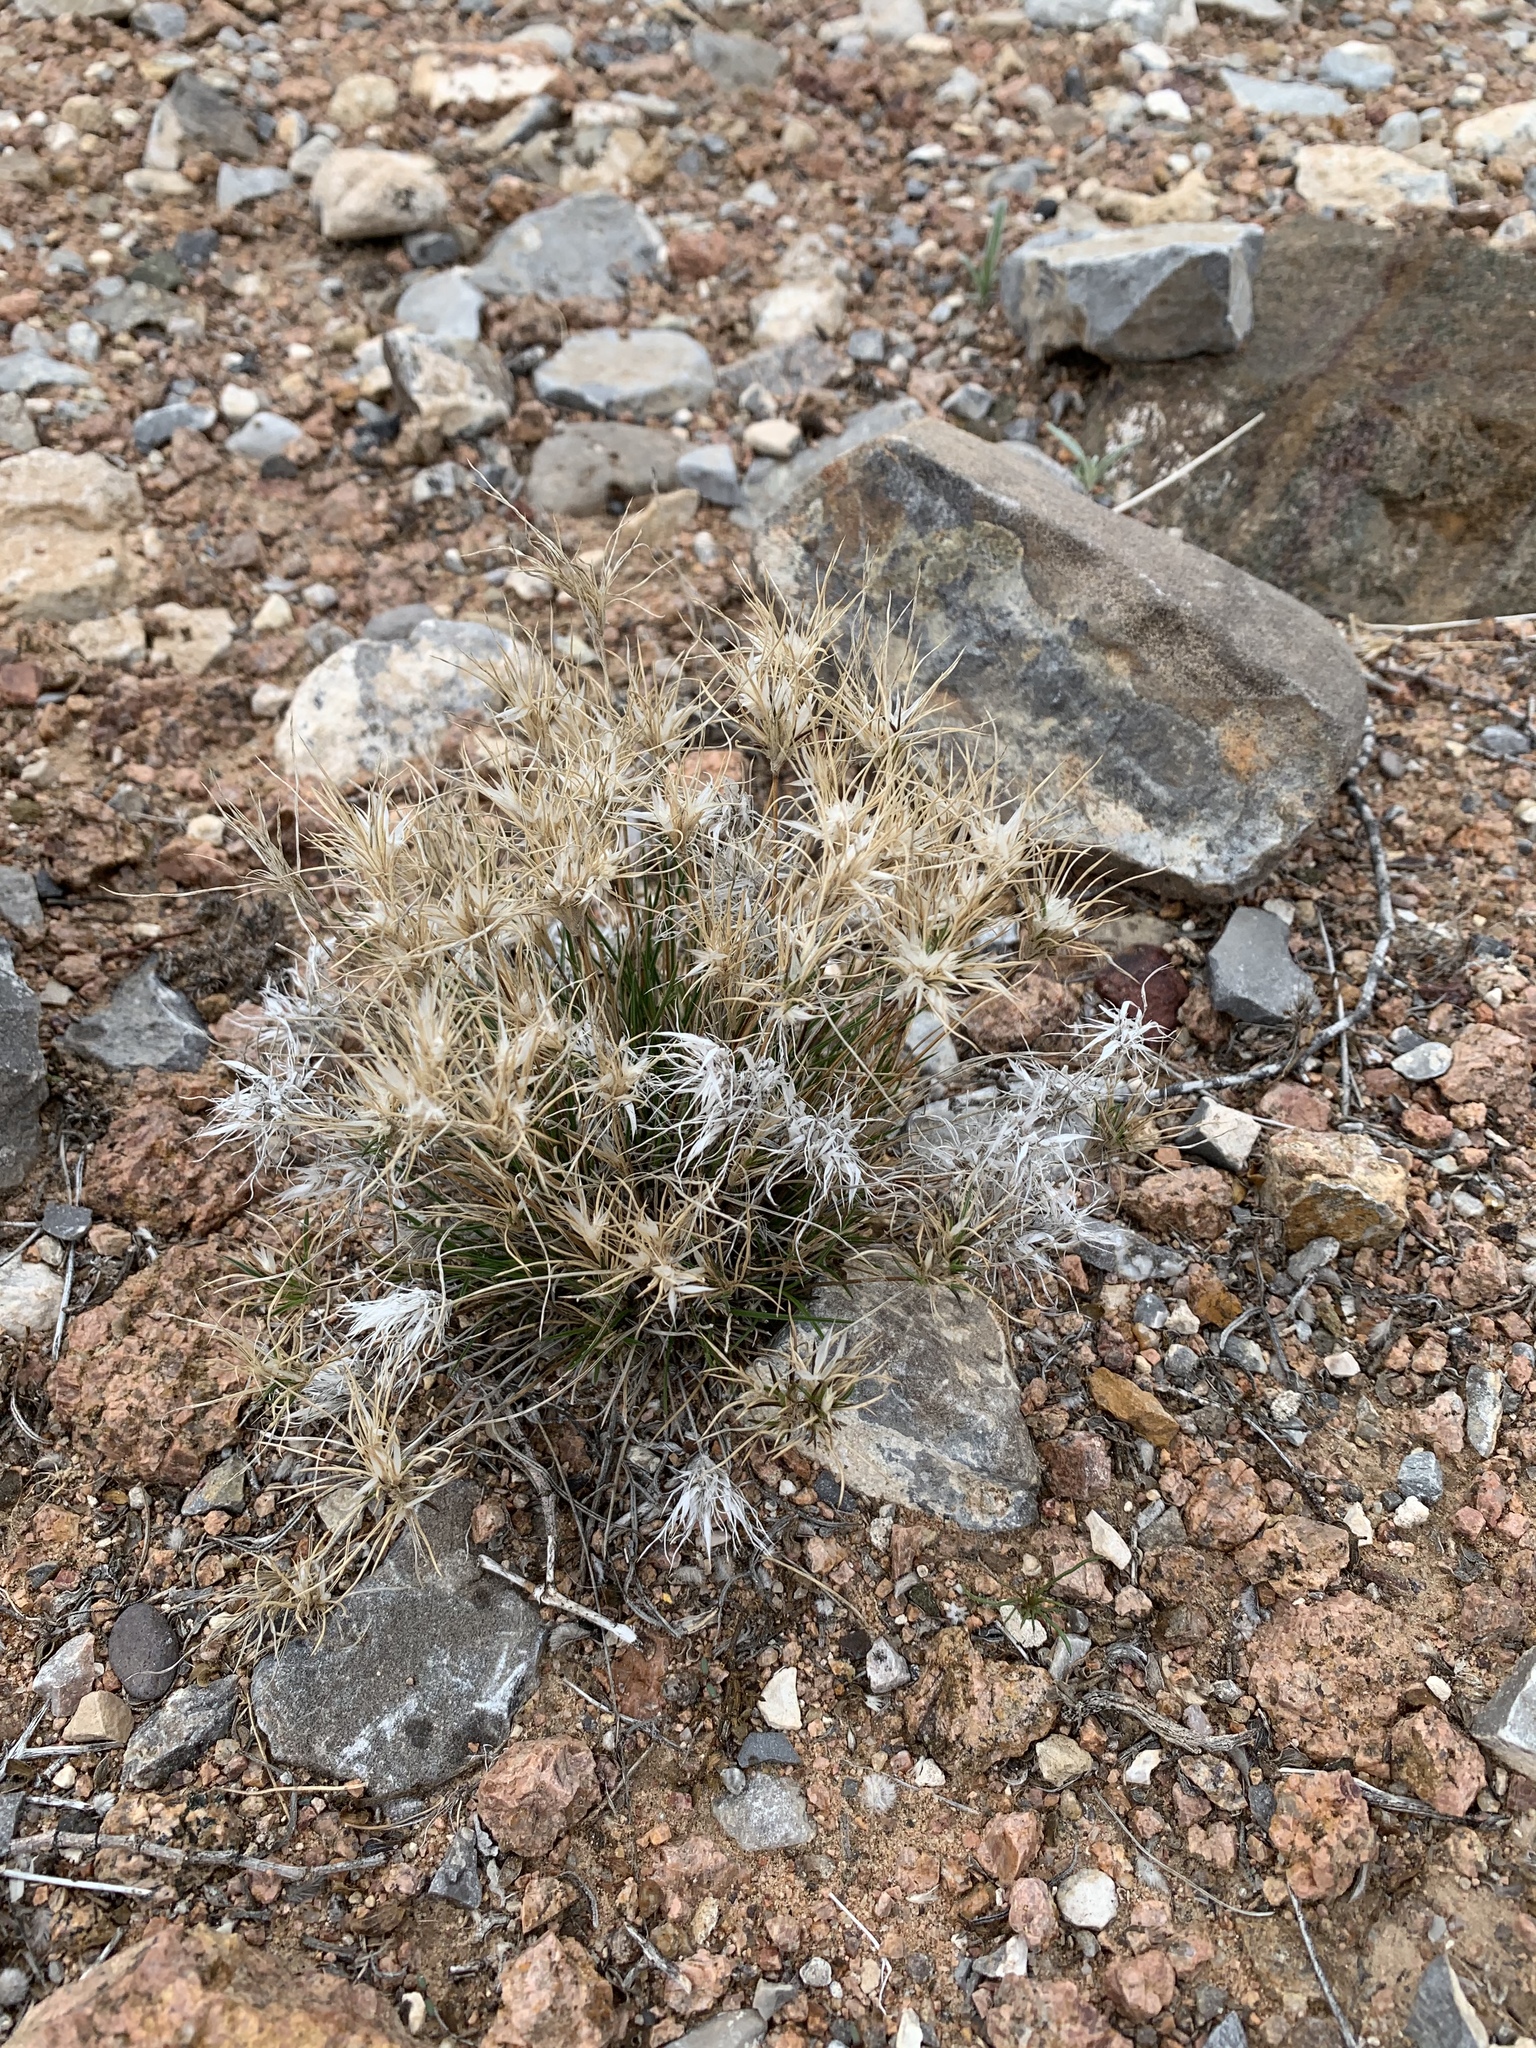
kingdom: Plantae
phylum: Tracheophyta
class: Liliopsida
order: Poales
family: Poaceae
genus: Dasyochloa
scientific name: Dasyochloa pulchella
